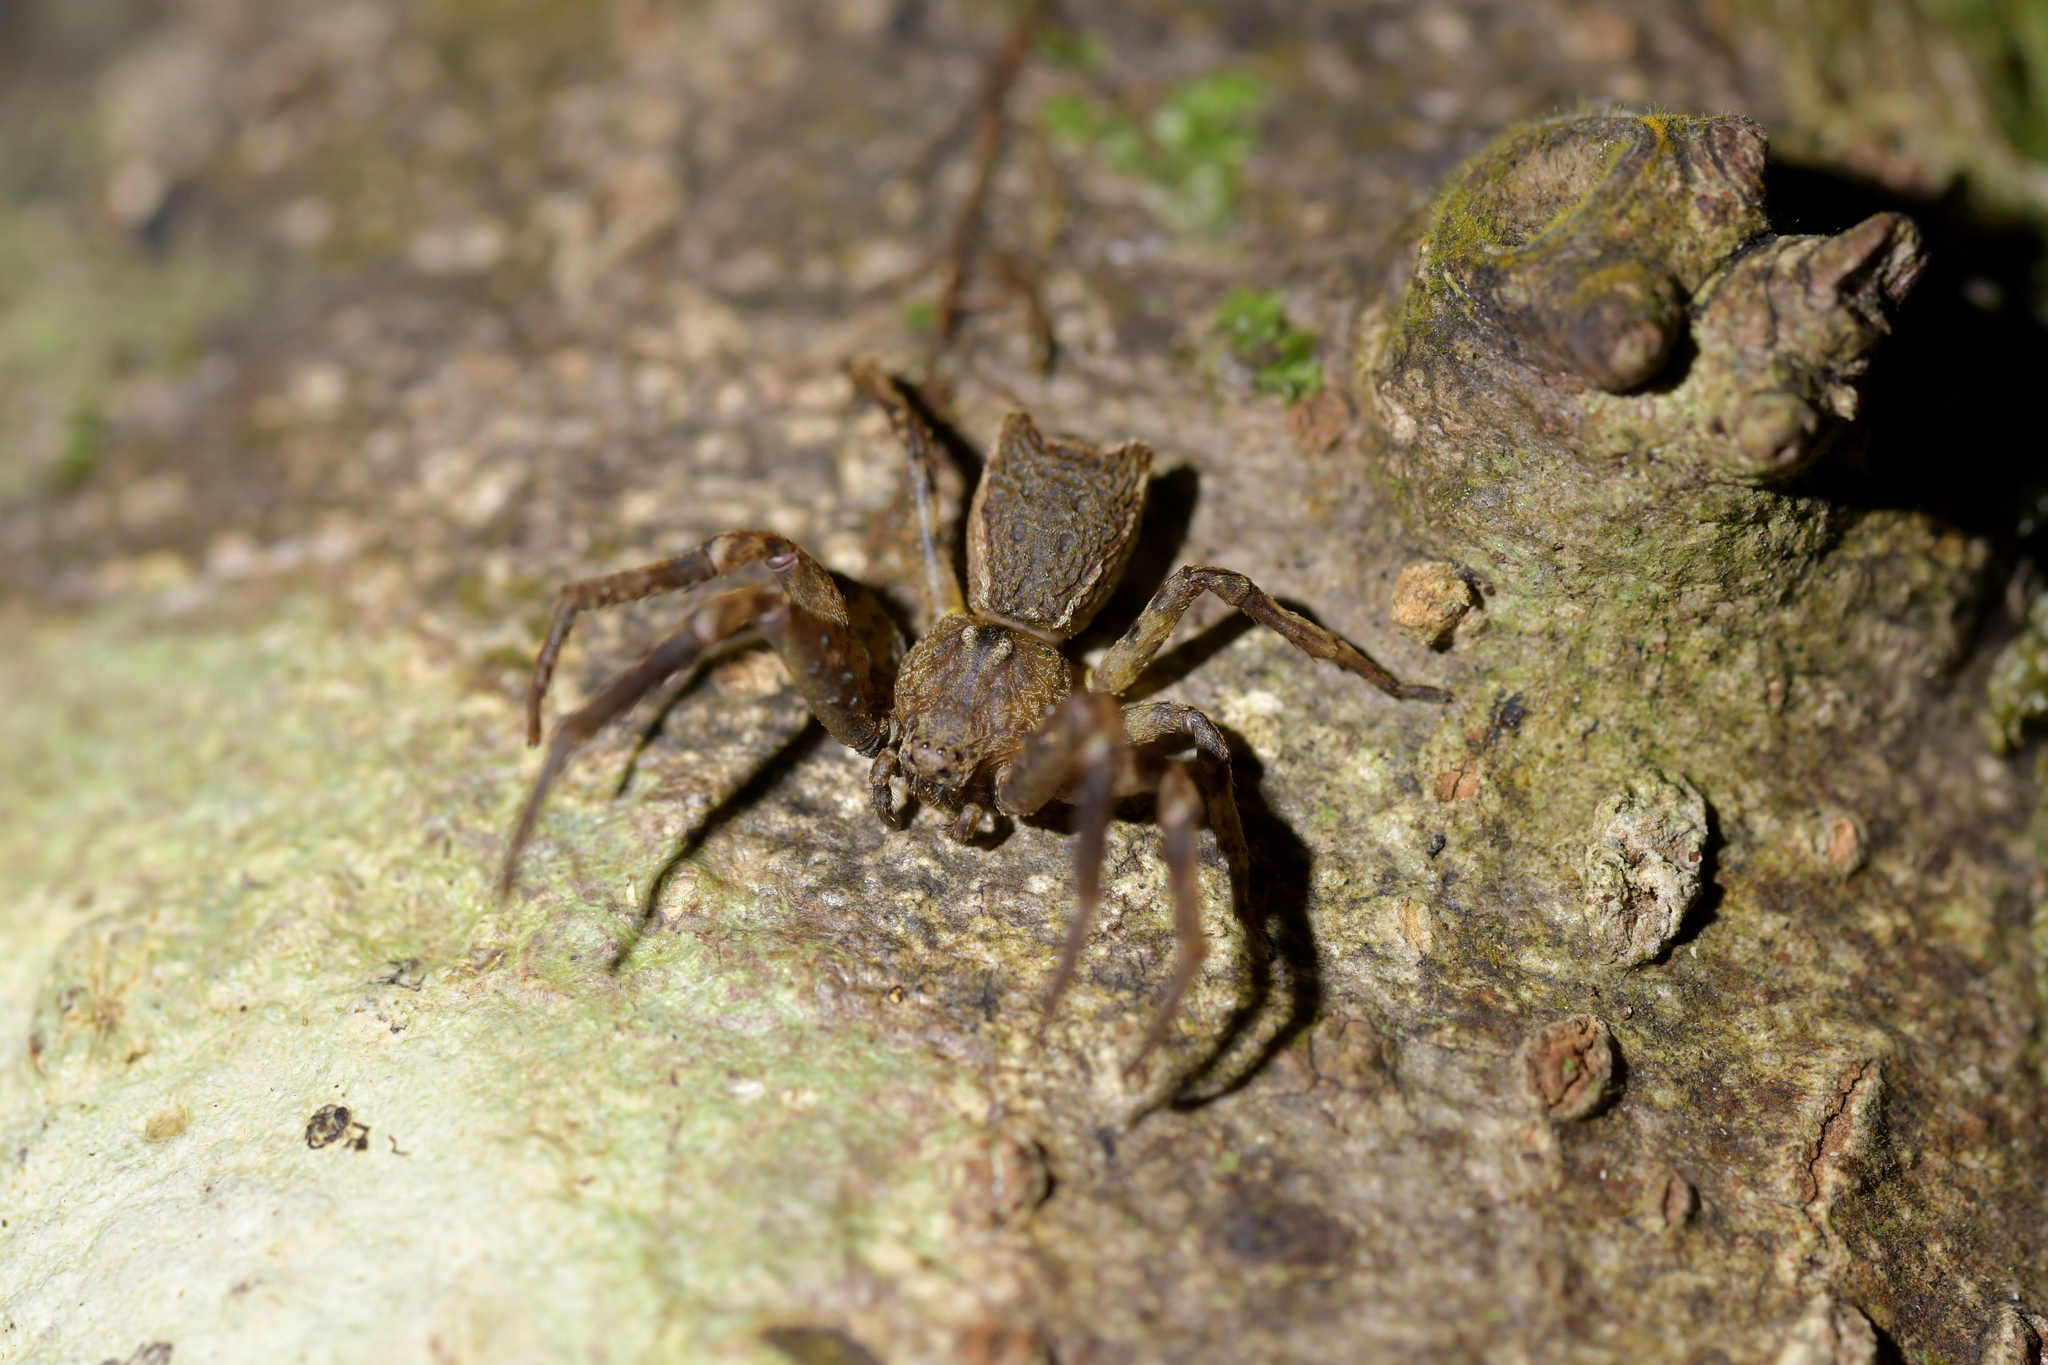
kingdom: Animalia
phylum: Arthropoda
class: Arachnida
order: Araneae
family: Thomisidae
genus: Sidymella
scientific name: Sidymella angularis
